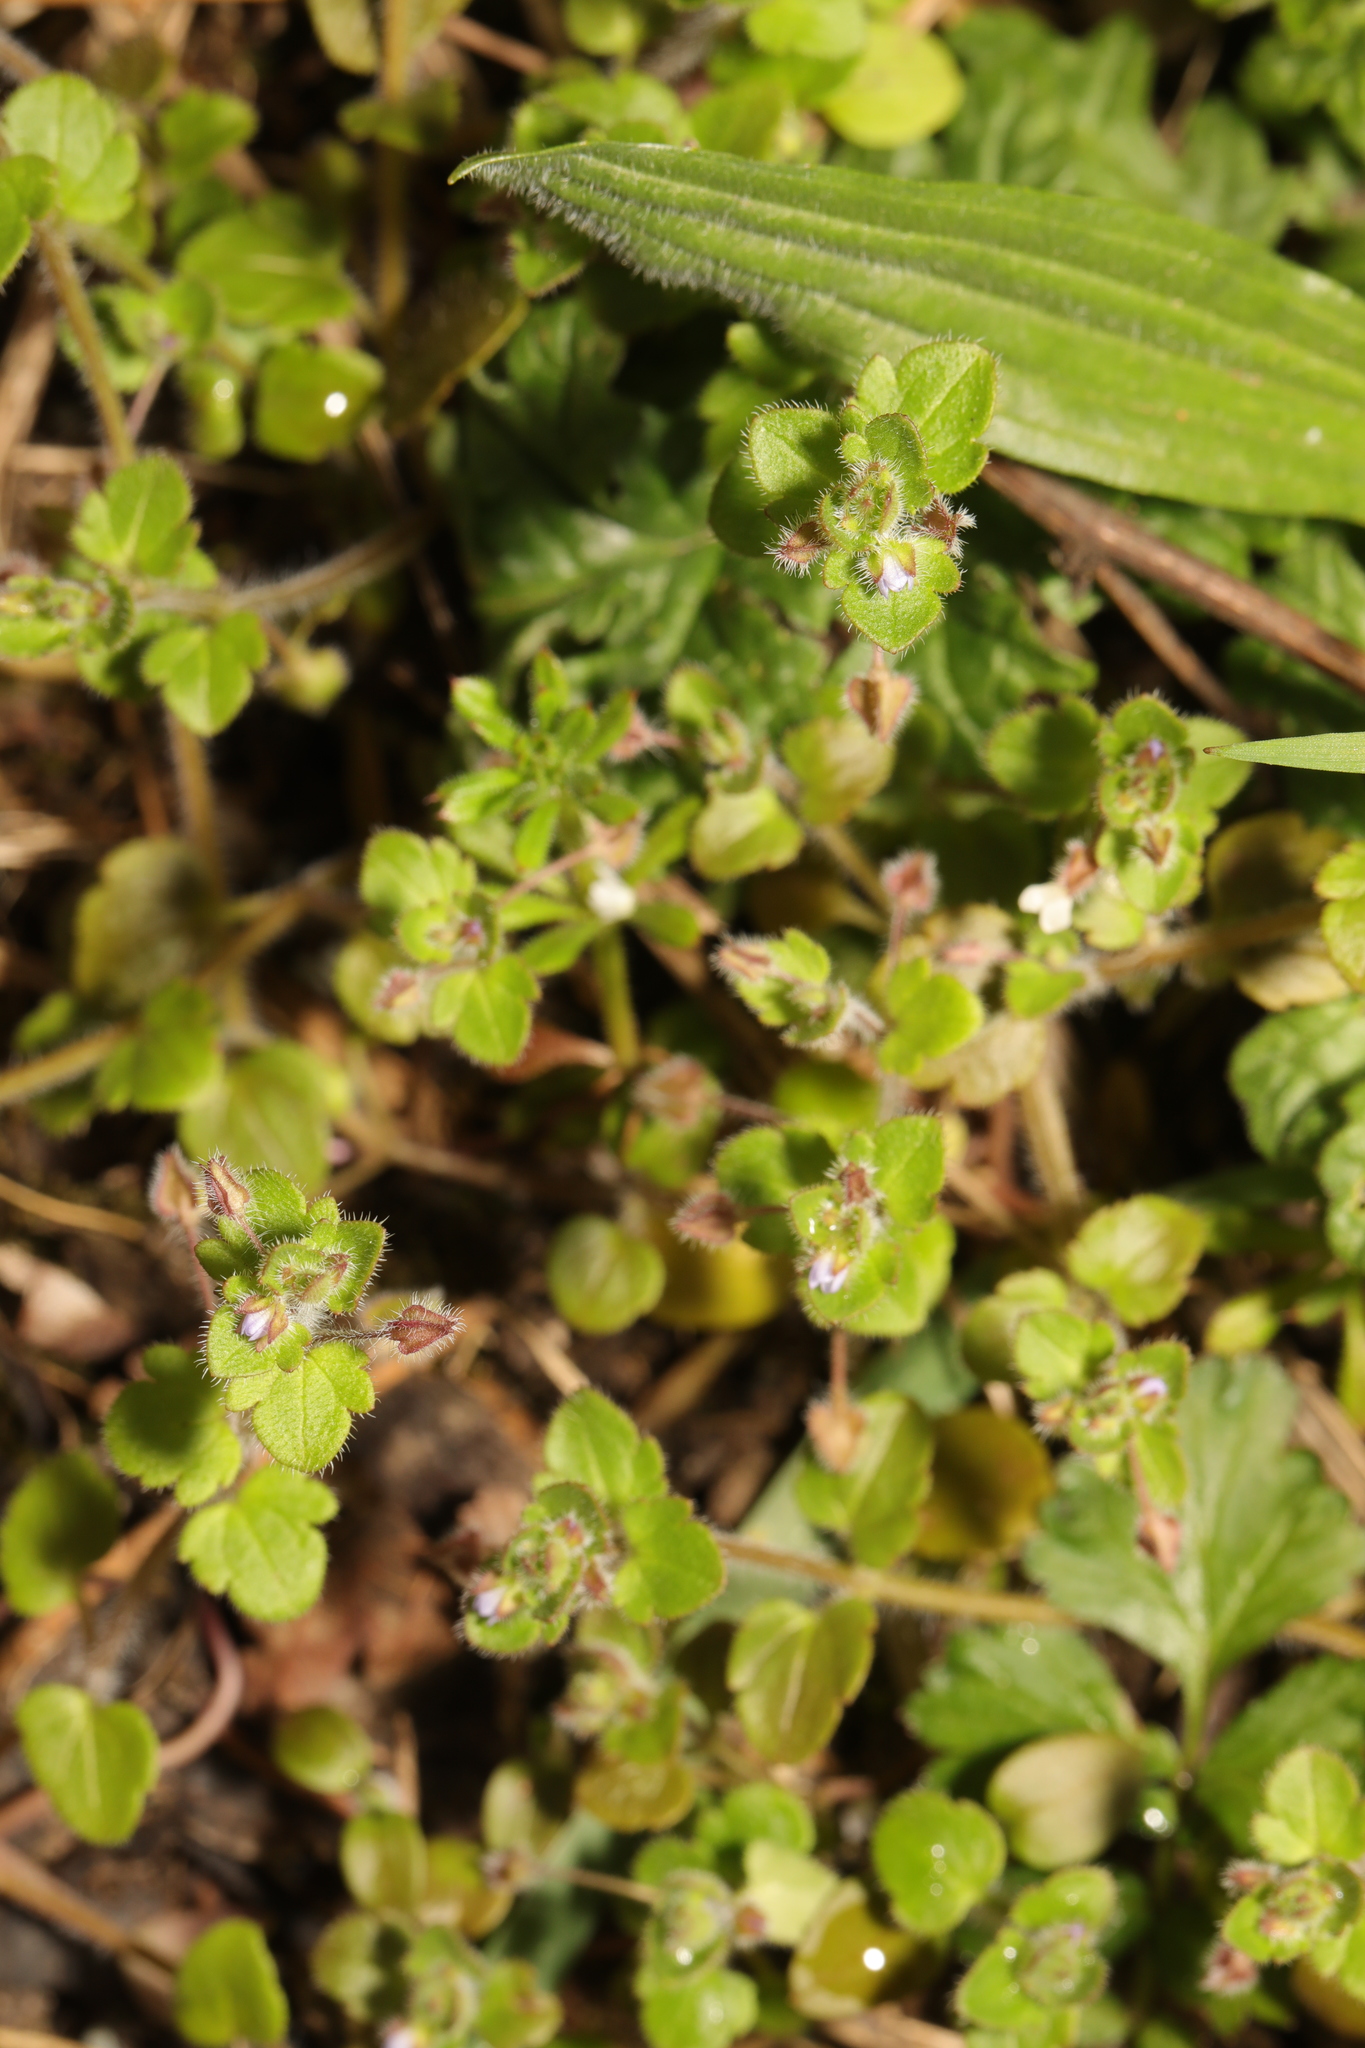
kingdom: Plantae
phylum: Tracheophyta
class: Magnoliopsida
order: Lamiales
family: Plantaginaceae
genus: Veronica
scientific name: Veronica hederifolia
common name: Ivy-leaved speedwell
